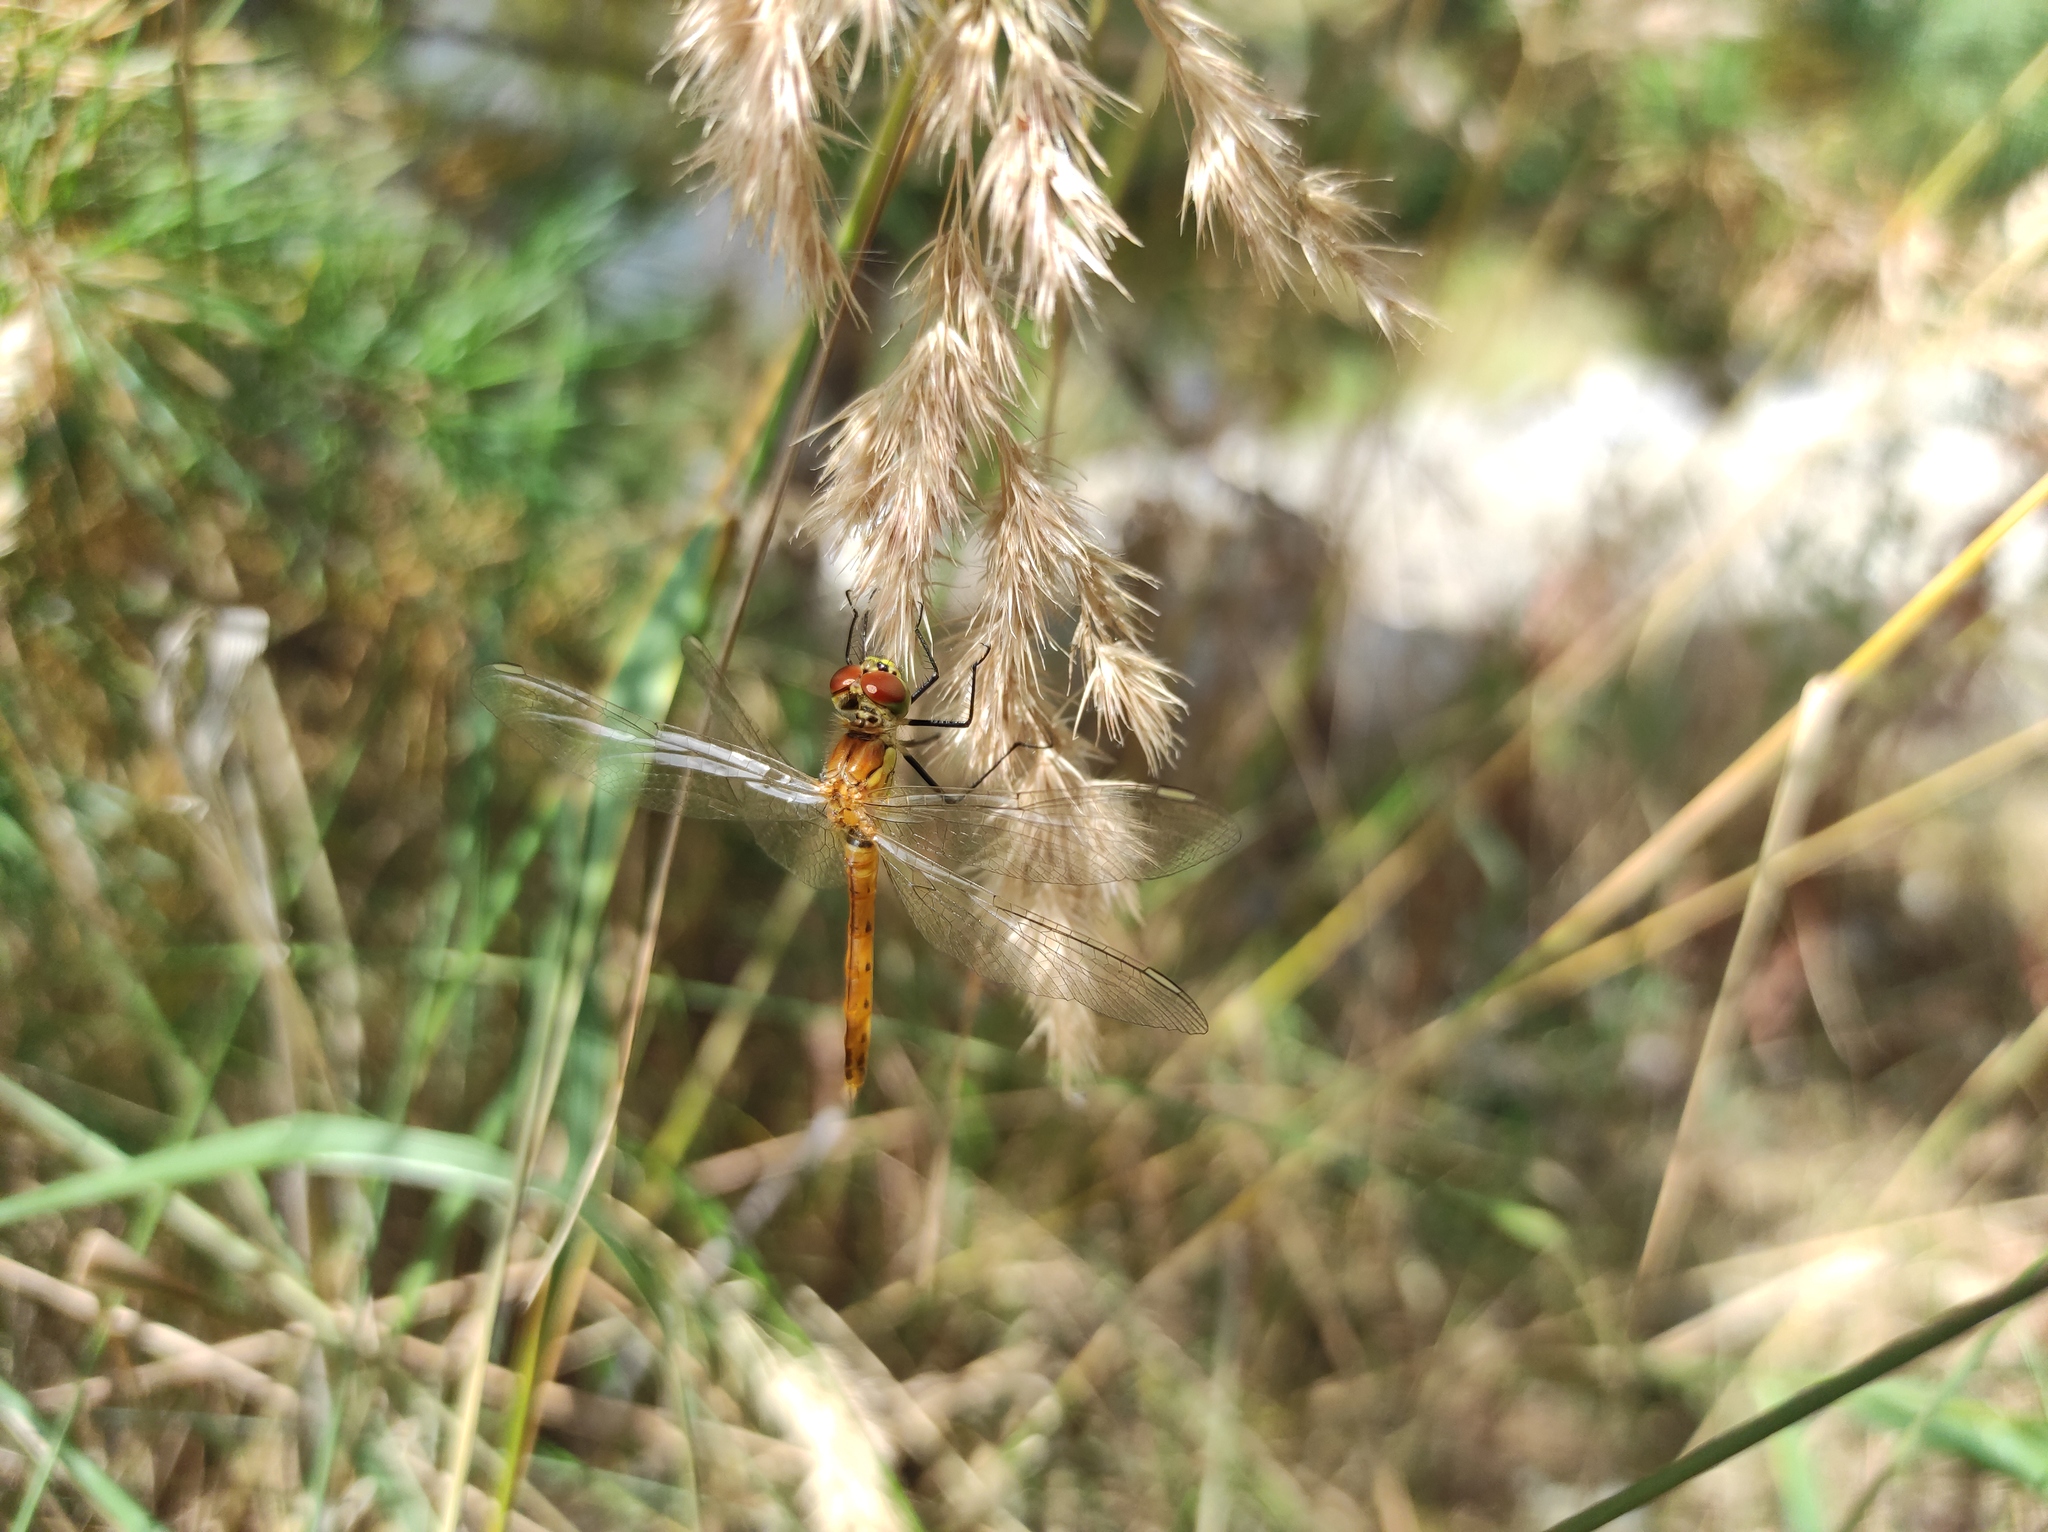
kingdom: Animalia
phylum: Arthropoda
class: Insecta
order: Odonata
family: Libellulidae
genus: Sympetrum
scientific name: Sympetrum depressiusculum
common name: Spotted darter
